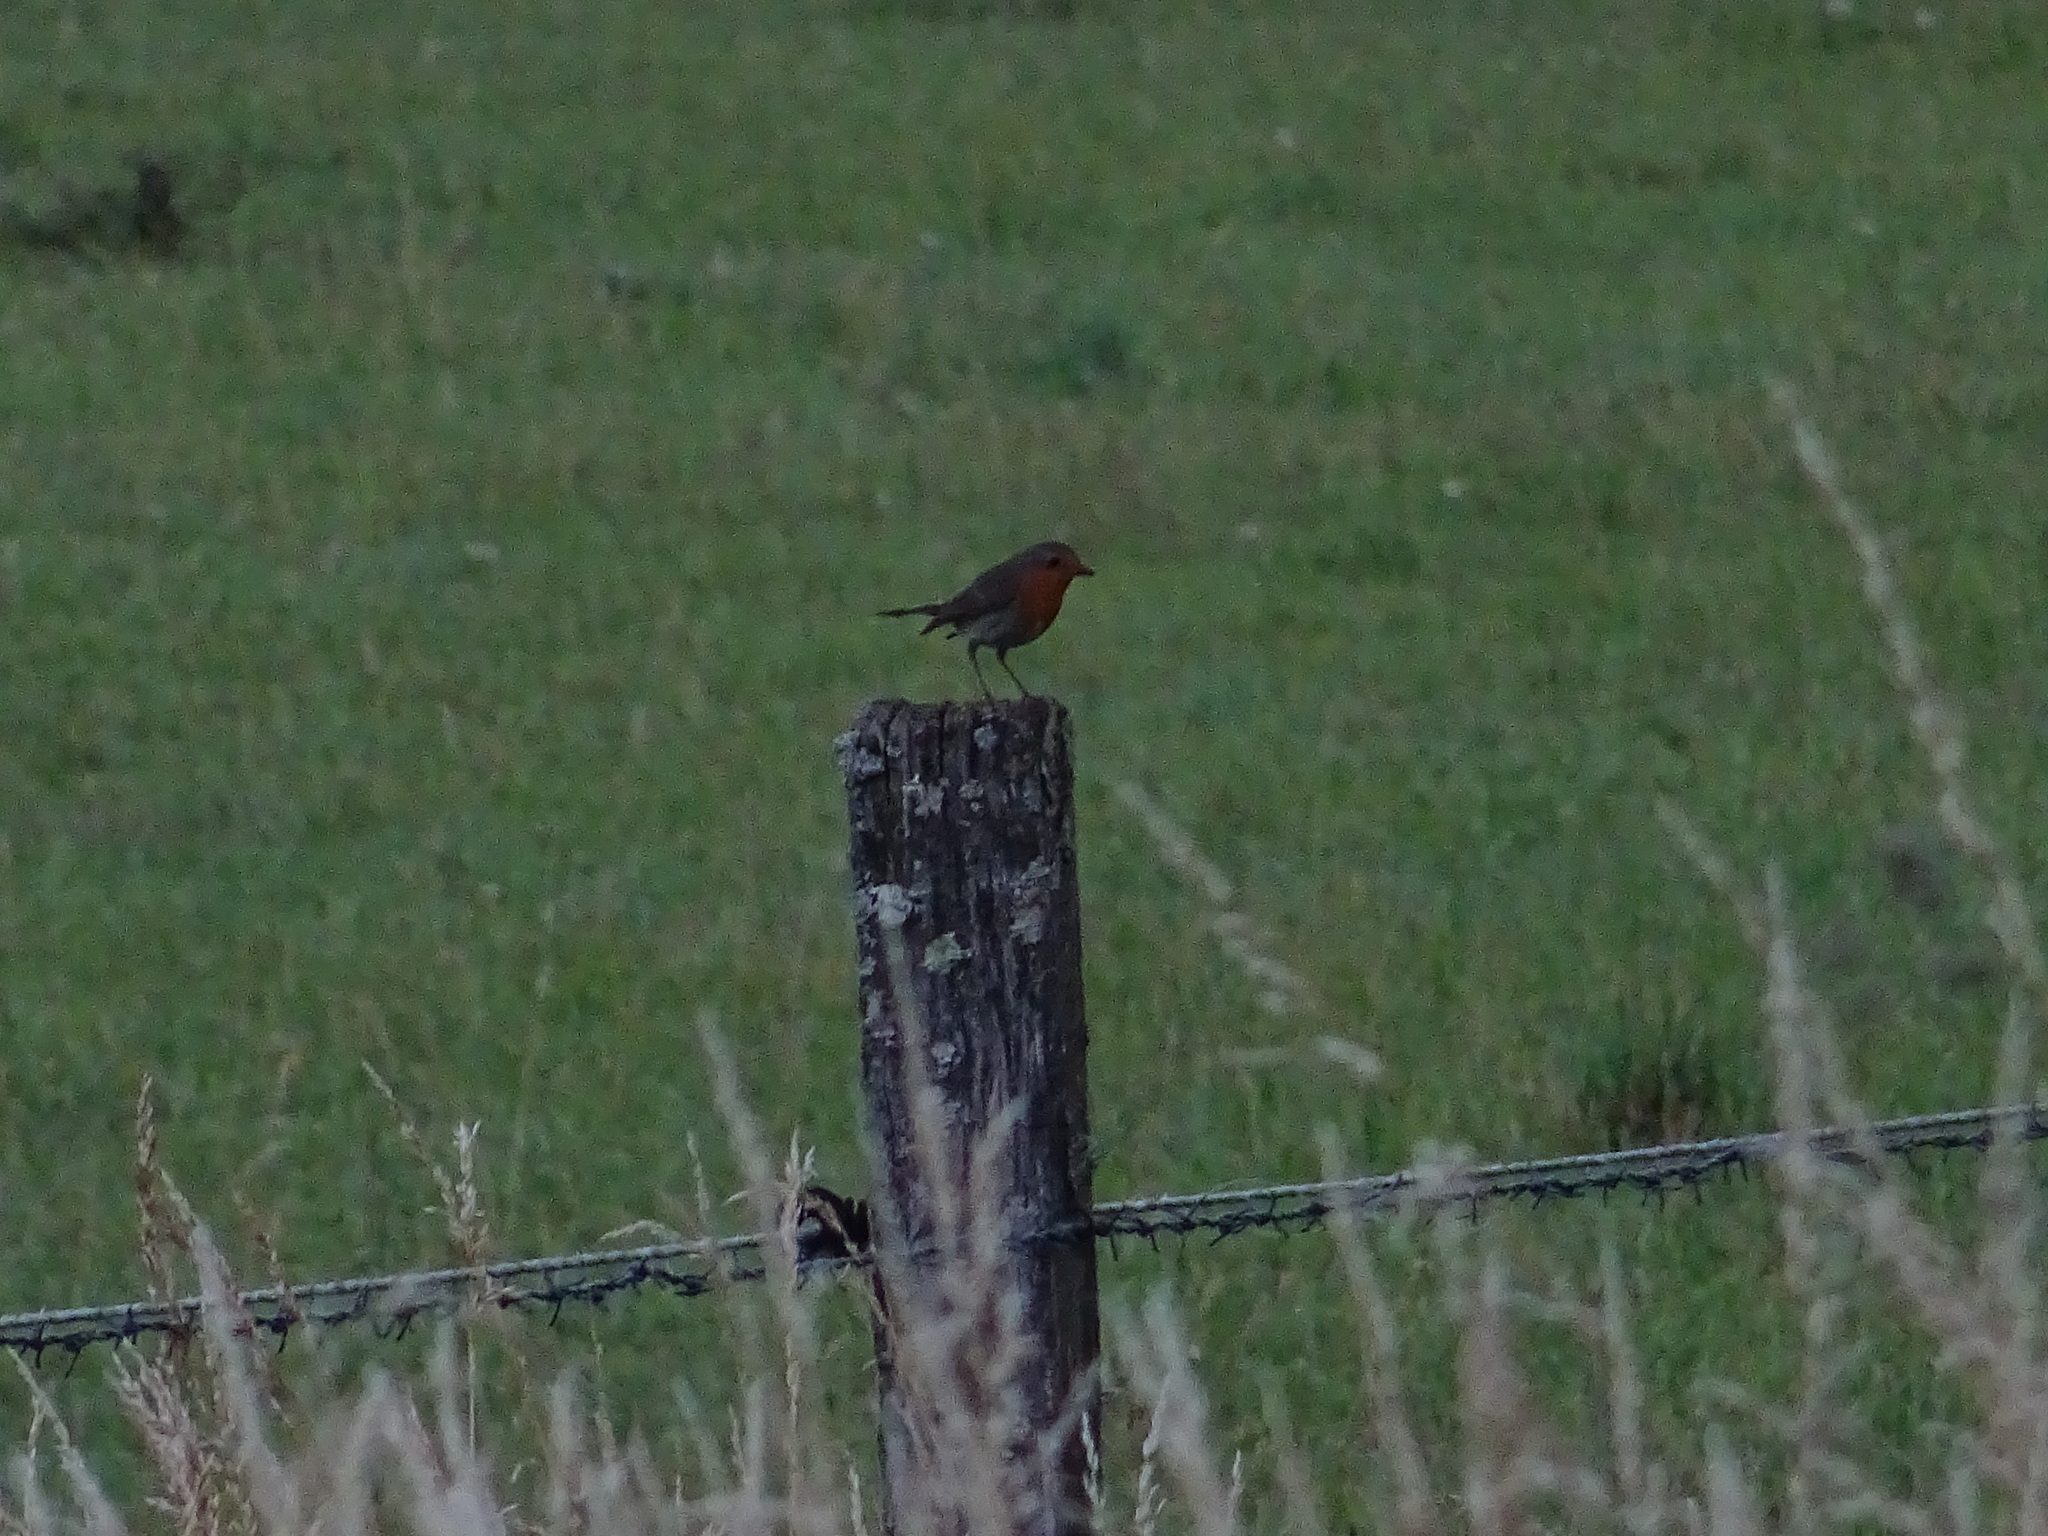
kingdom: Animalia
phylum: Chordata
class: Aves
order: Passeriformes
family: Muscicapidae
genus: Erithacus
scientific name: Erithacus rubecula
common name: European robin
